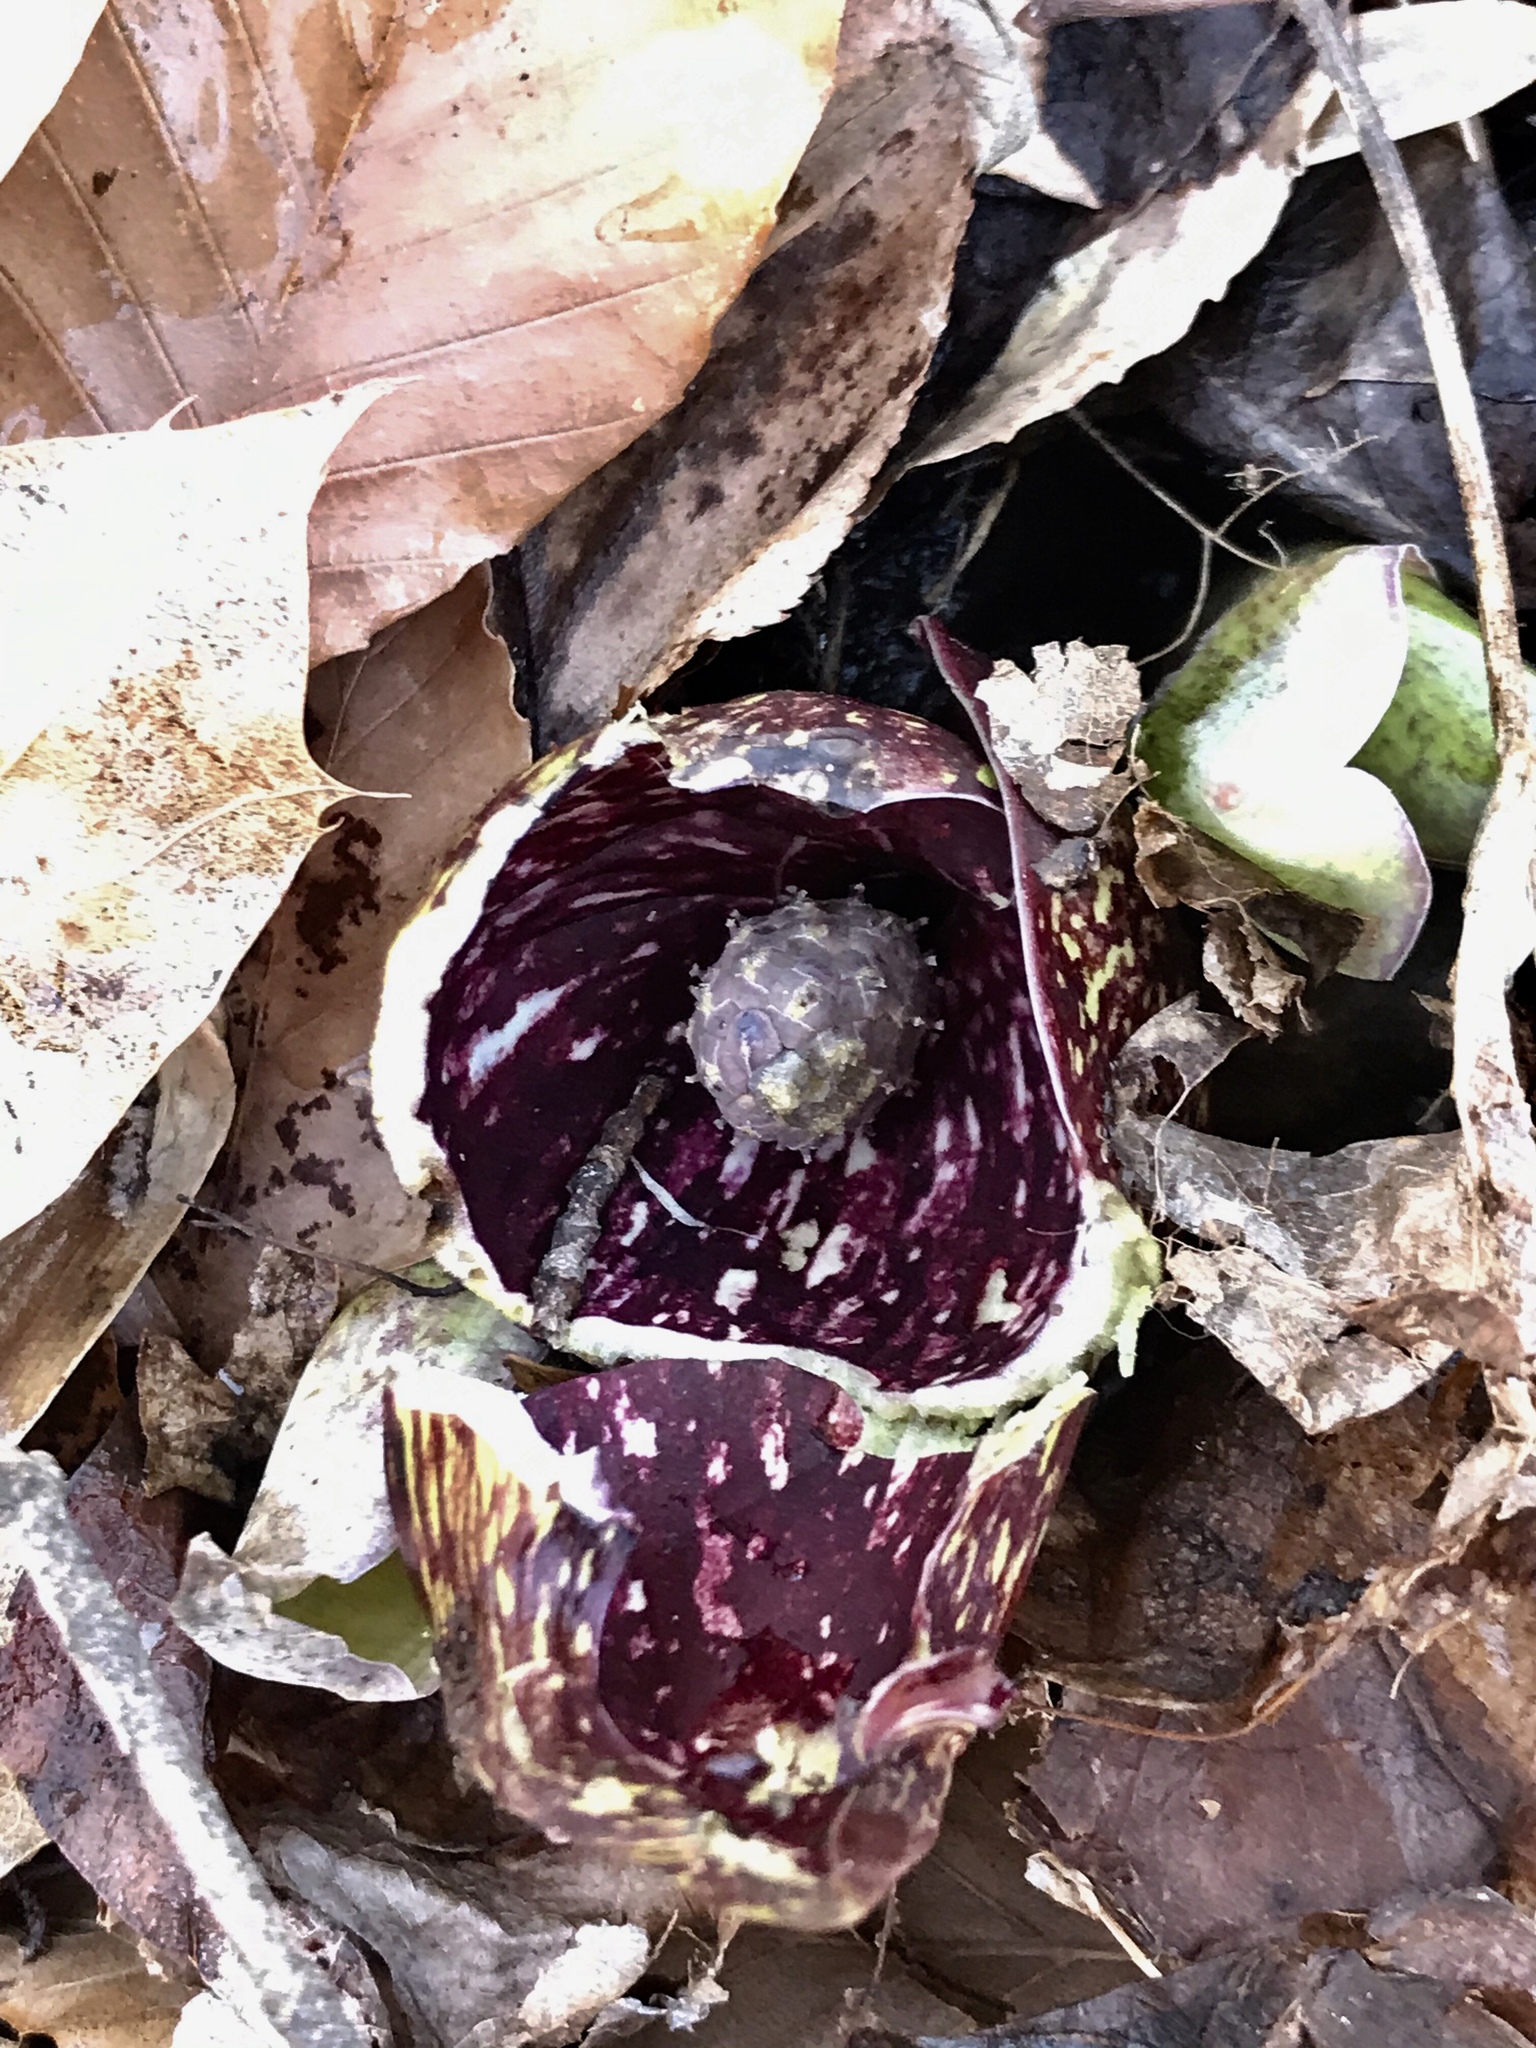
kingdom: Plantae
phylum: Tracheophyta
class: Liliopsida
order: Alismatales
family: Araceae
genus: Symplocarpus
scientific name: Symplocarpus foetidus
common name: Eastern skunk cabbage
